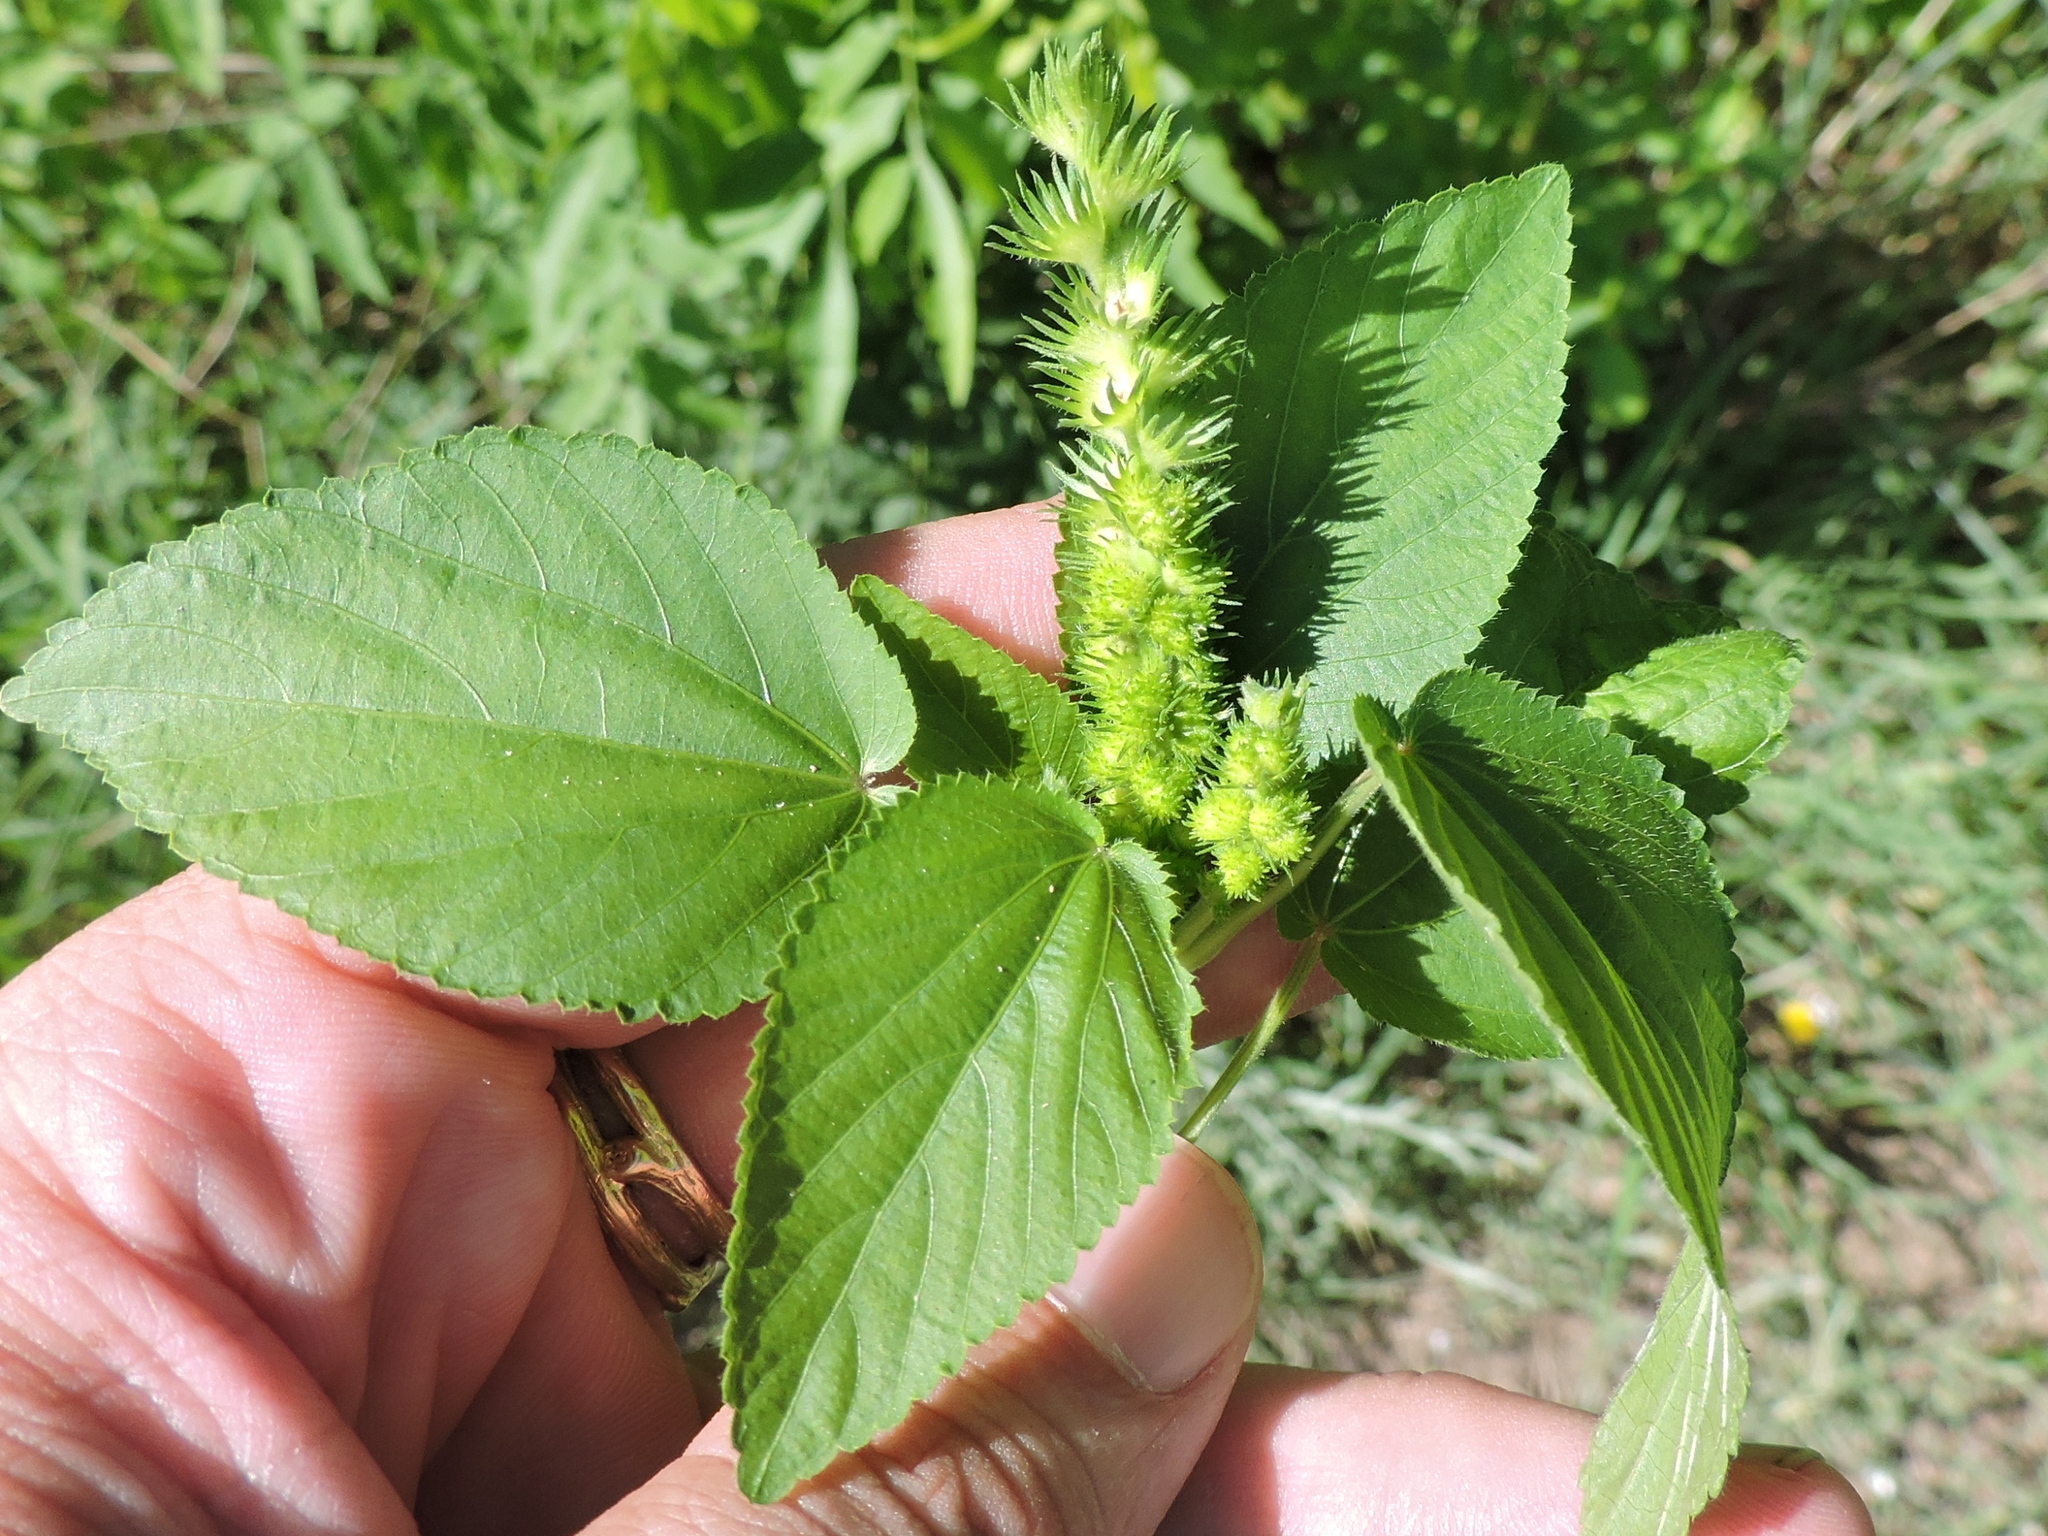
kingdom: Plantae
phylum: Tracheophyta
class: Magnoliopsida
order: Malpighiales
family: Euphorbiaceae
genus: Acalypha
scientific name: Acalypha ostryifolia
